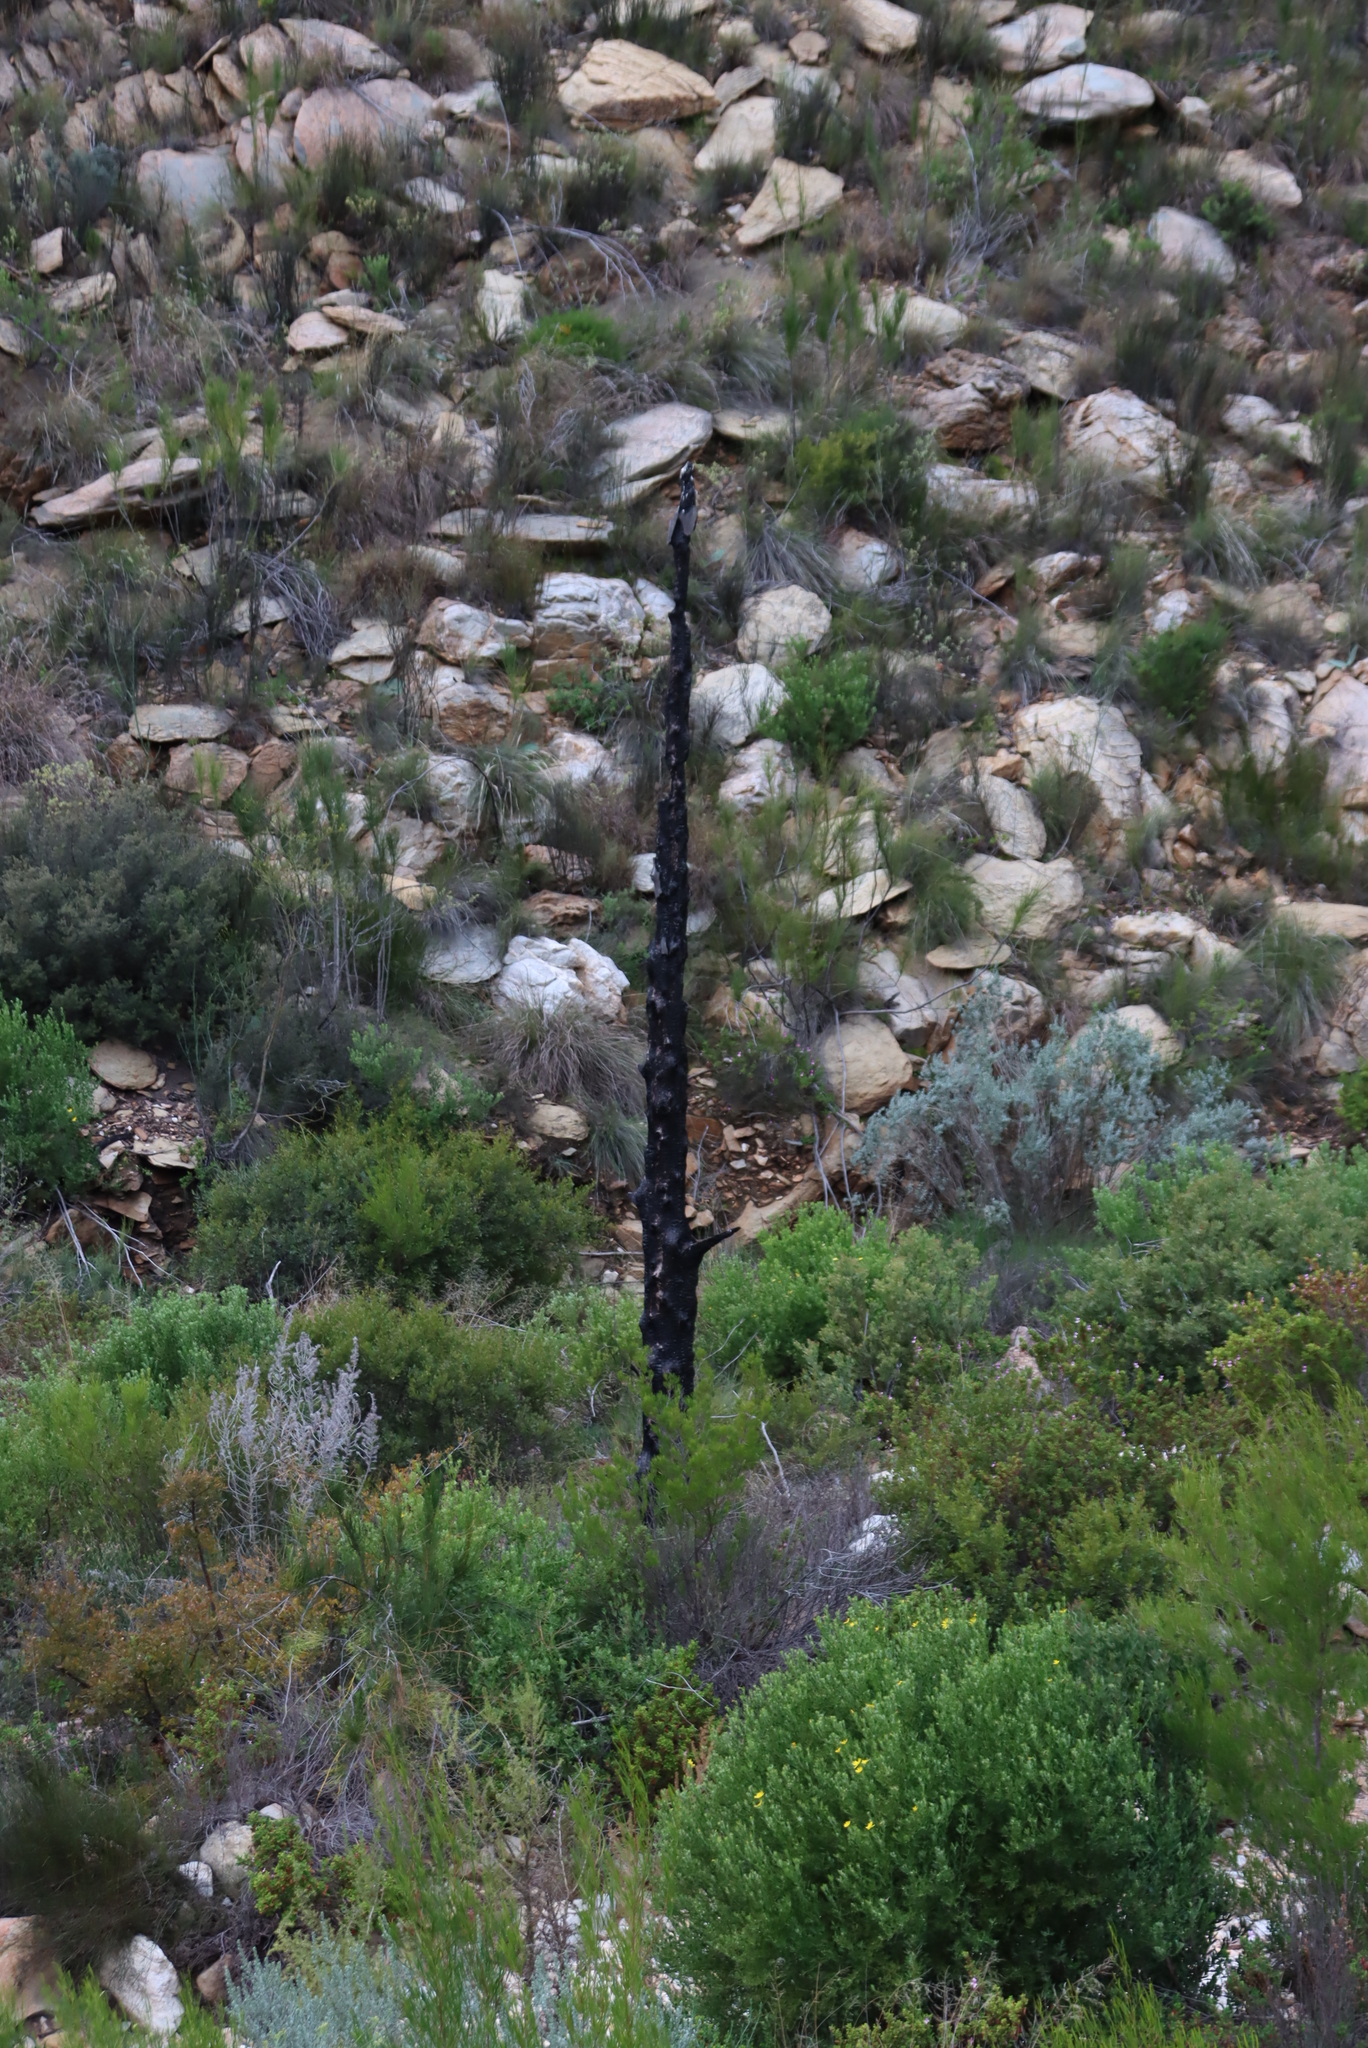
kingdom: Plantae
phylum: Tracheophyta
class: Pinopsida
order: Pinales
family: Cupressaceae
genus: Widdringtonia
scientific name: Widdringtonia schwarzii
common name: Baviaans cedar
